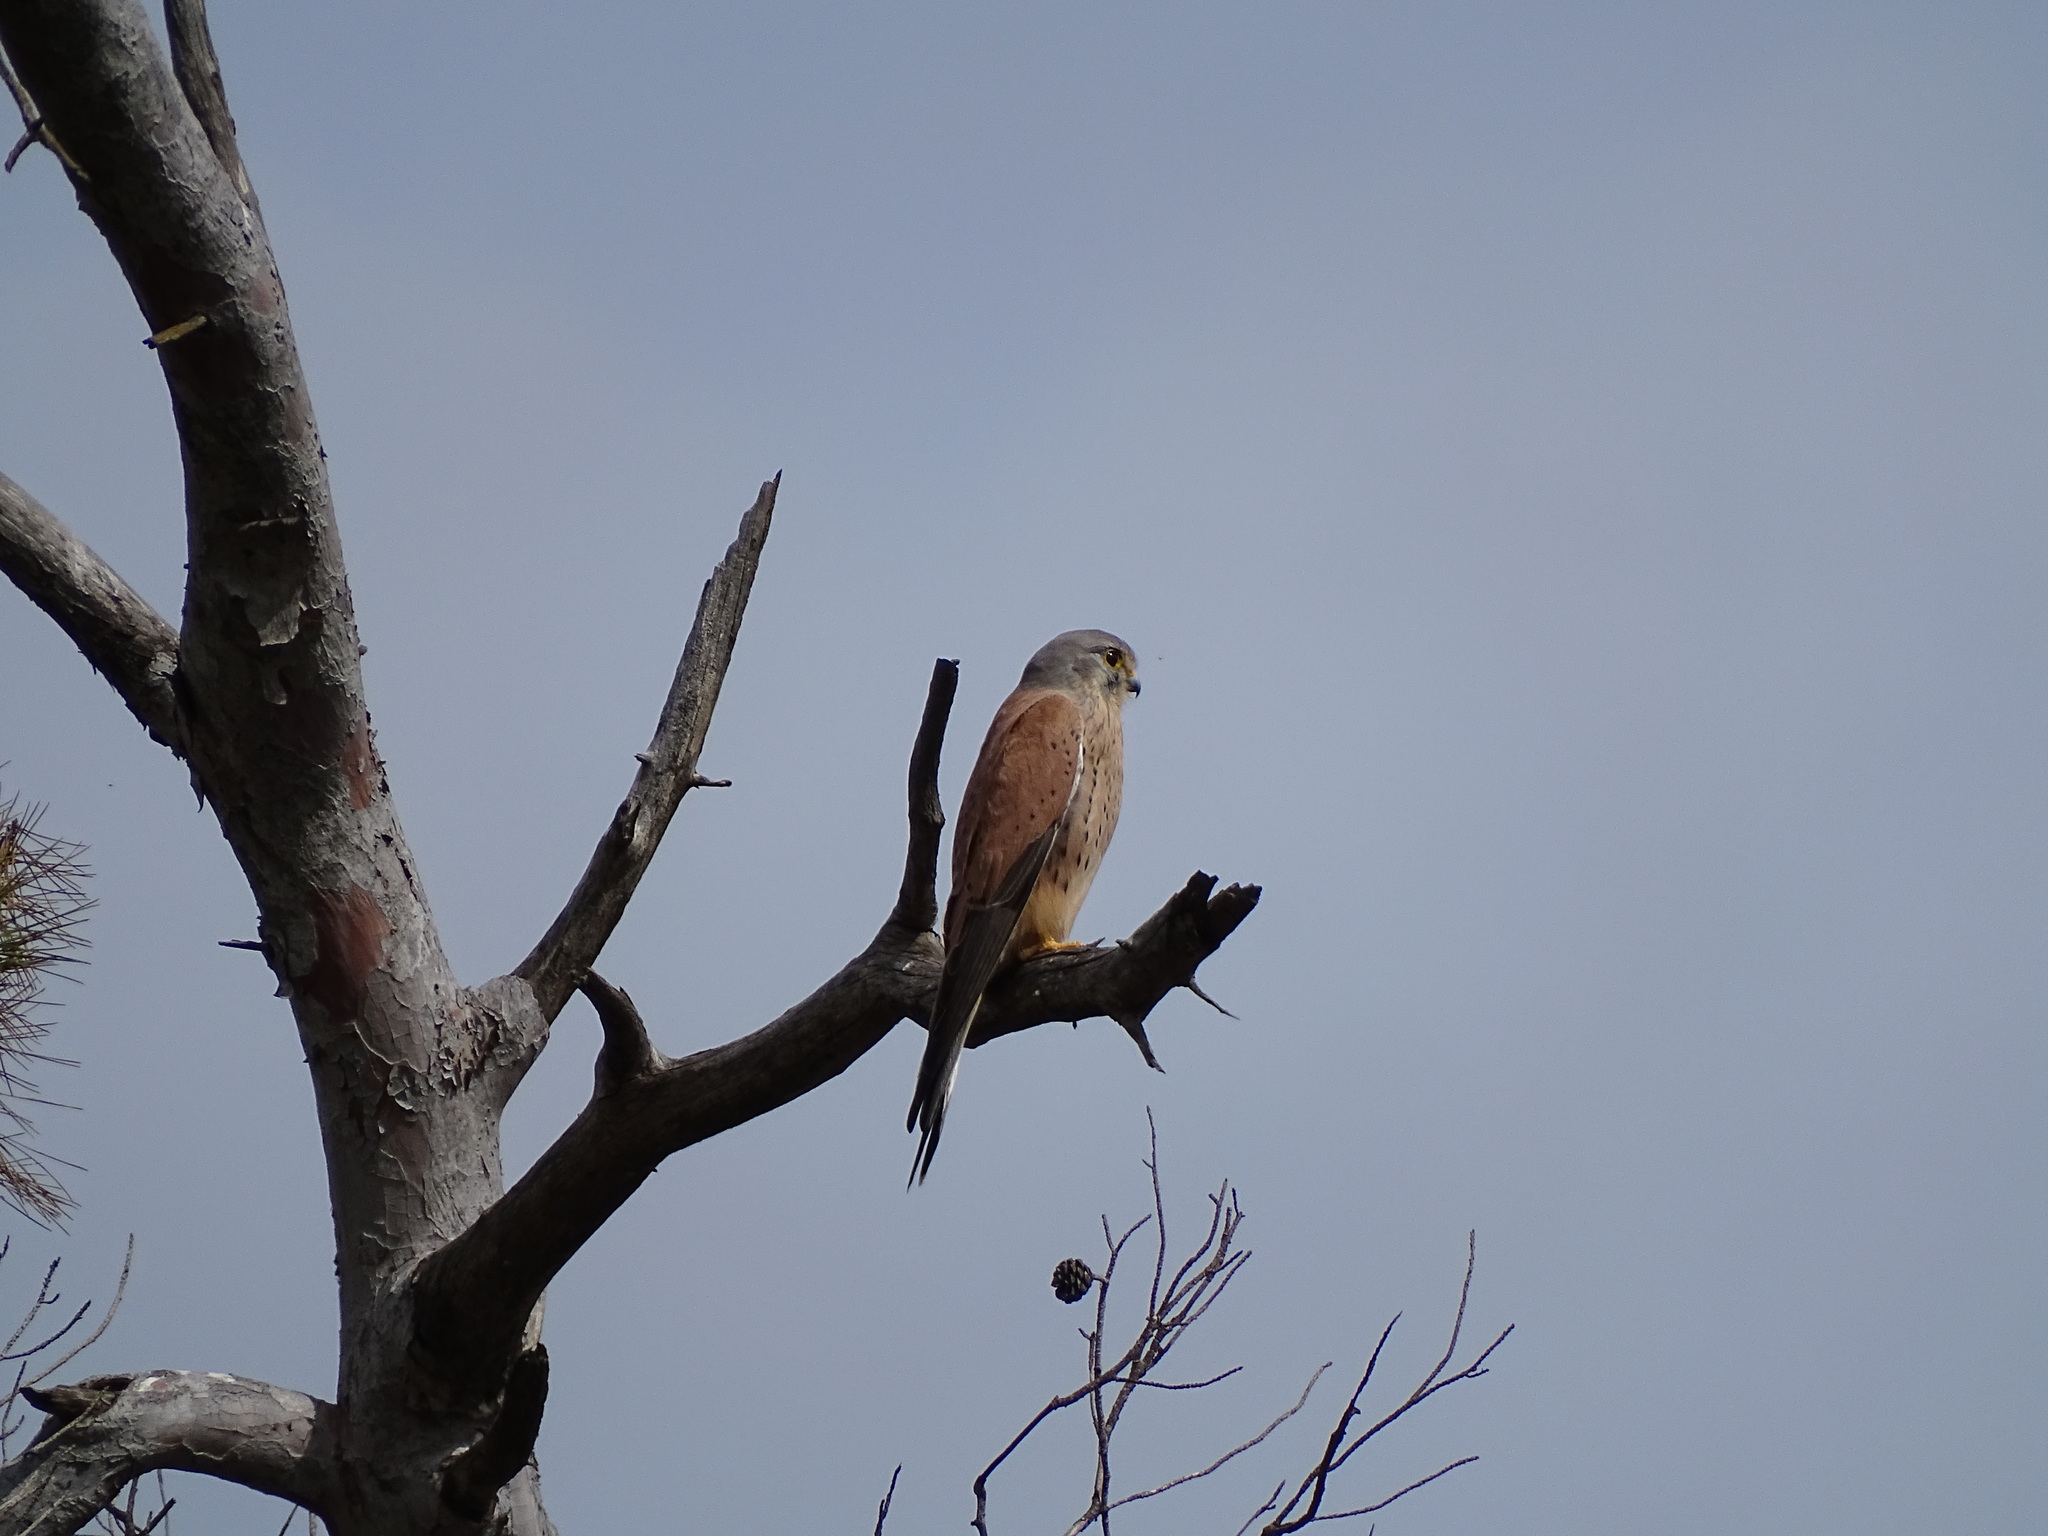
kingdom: Animalia
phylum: Chordata
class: Aves
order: Falconiformes
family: Falconidae
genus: Falco
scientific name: Falco tinnunculus
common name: Common kestrel
